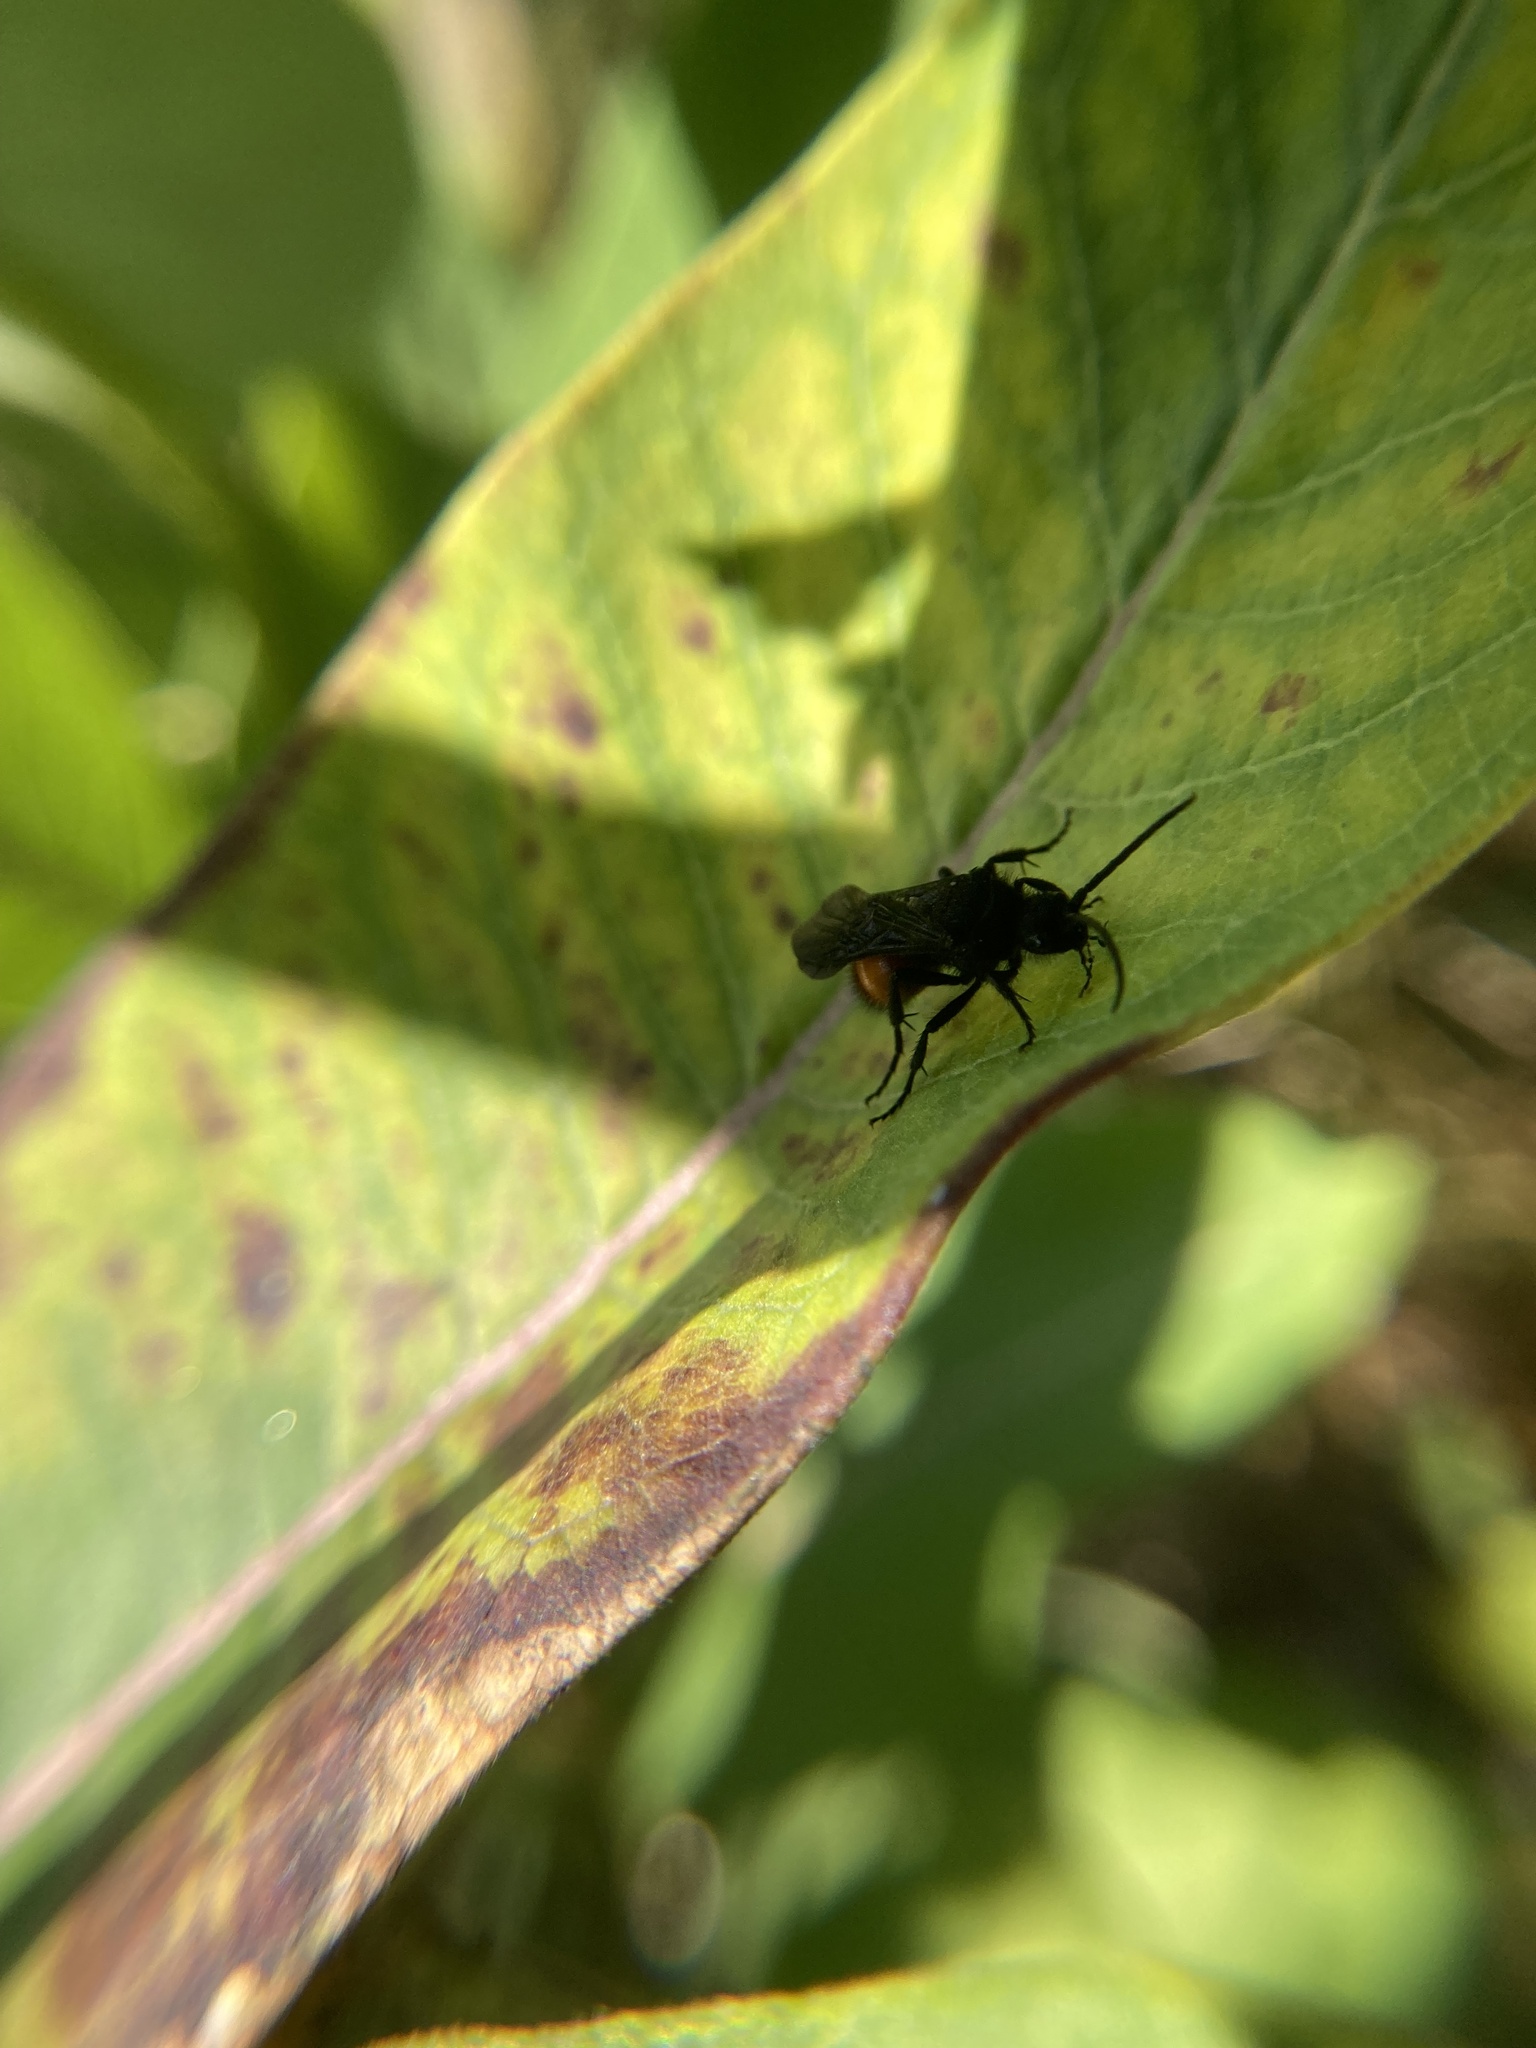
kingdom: Animalia
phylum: Arthropoda
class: Insecta
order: Hymenoptera
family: Mutillidae
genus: Dasymutilla
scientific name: Dasymutilla
